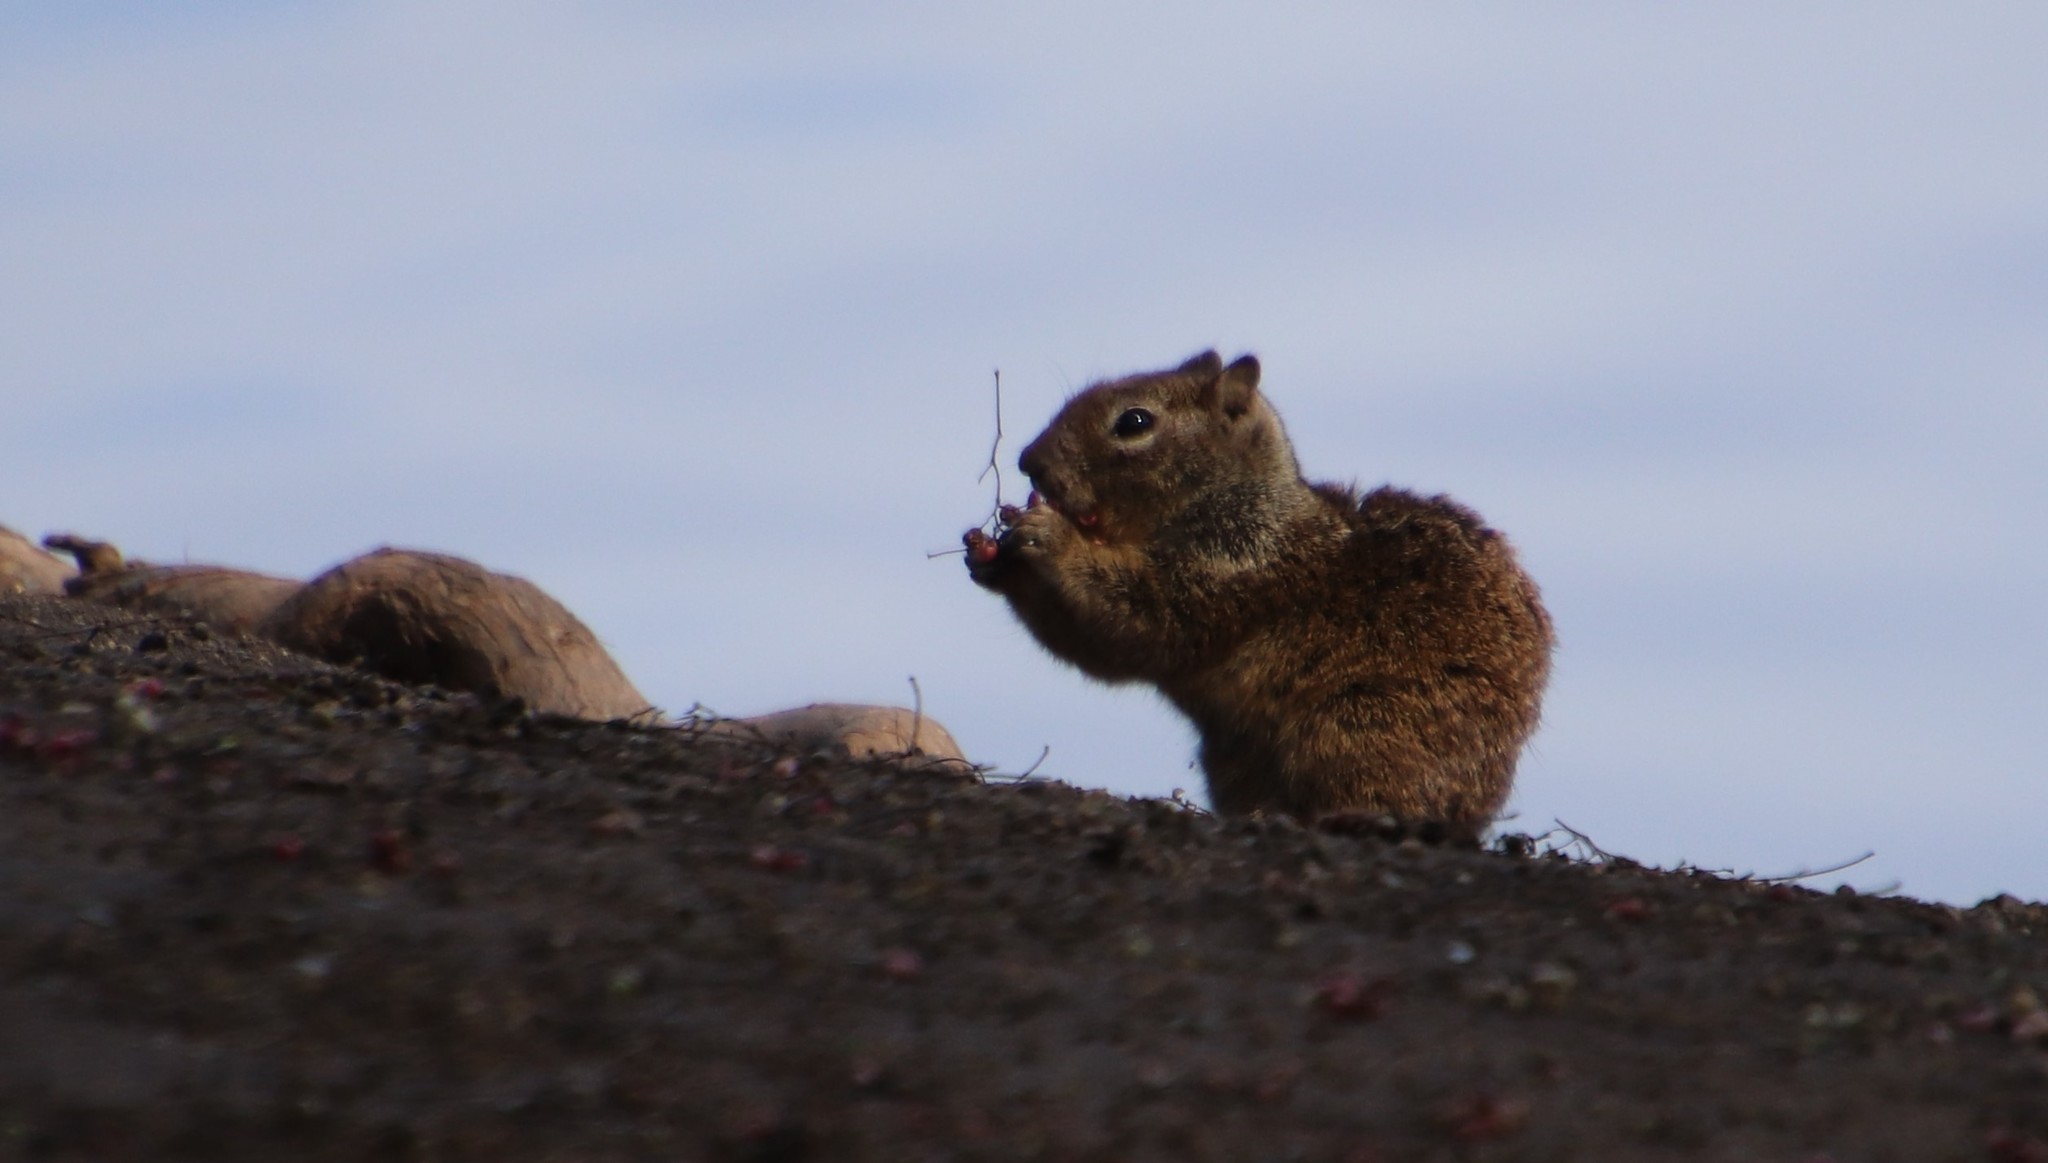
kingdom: Animalia
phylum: Chordata
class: Mammalia
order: Rodentia
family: Sciuridae
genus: Otospermophilus
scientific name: Otospermophilus beecheyi
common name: California ground squirrel
